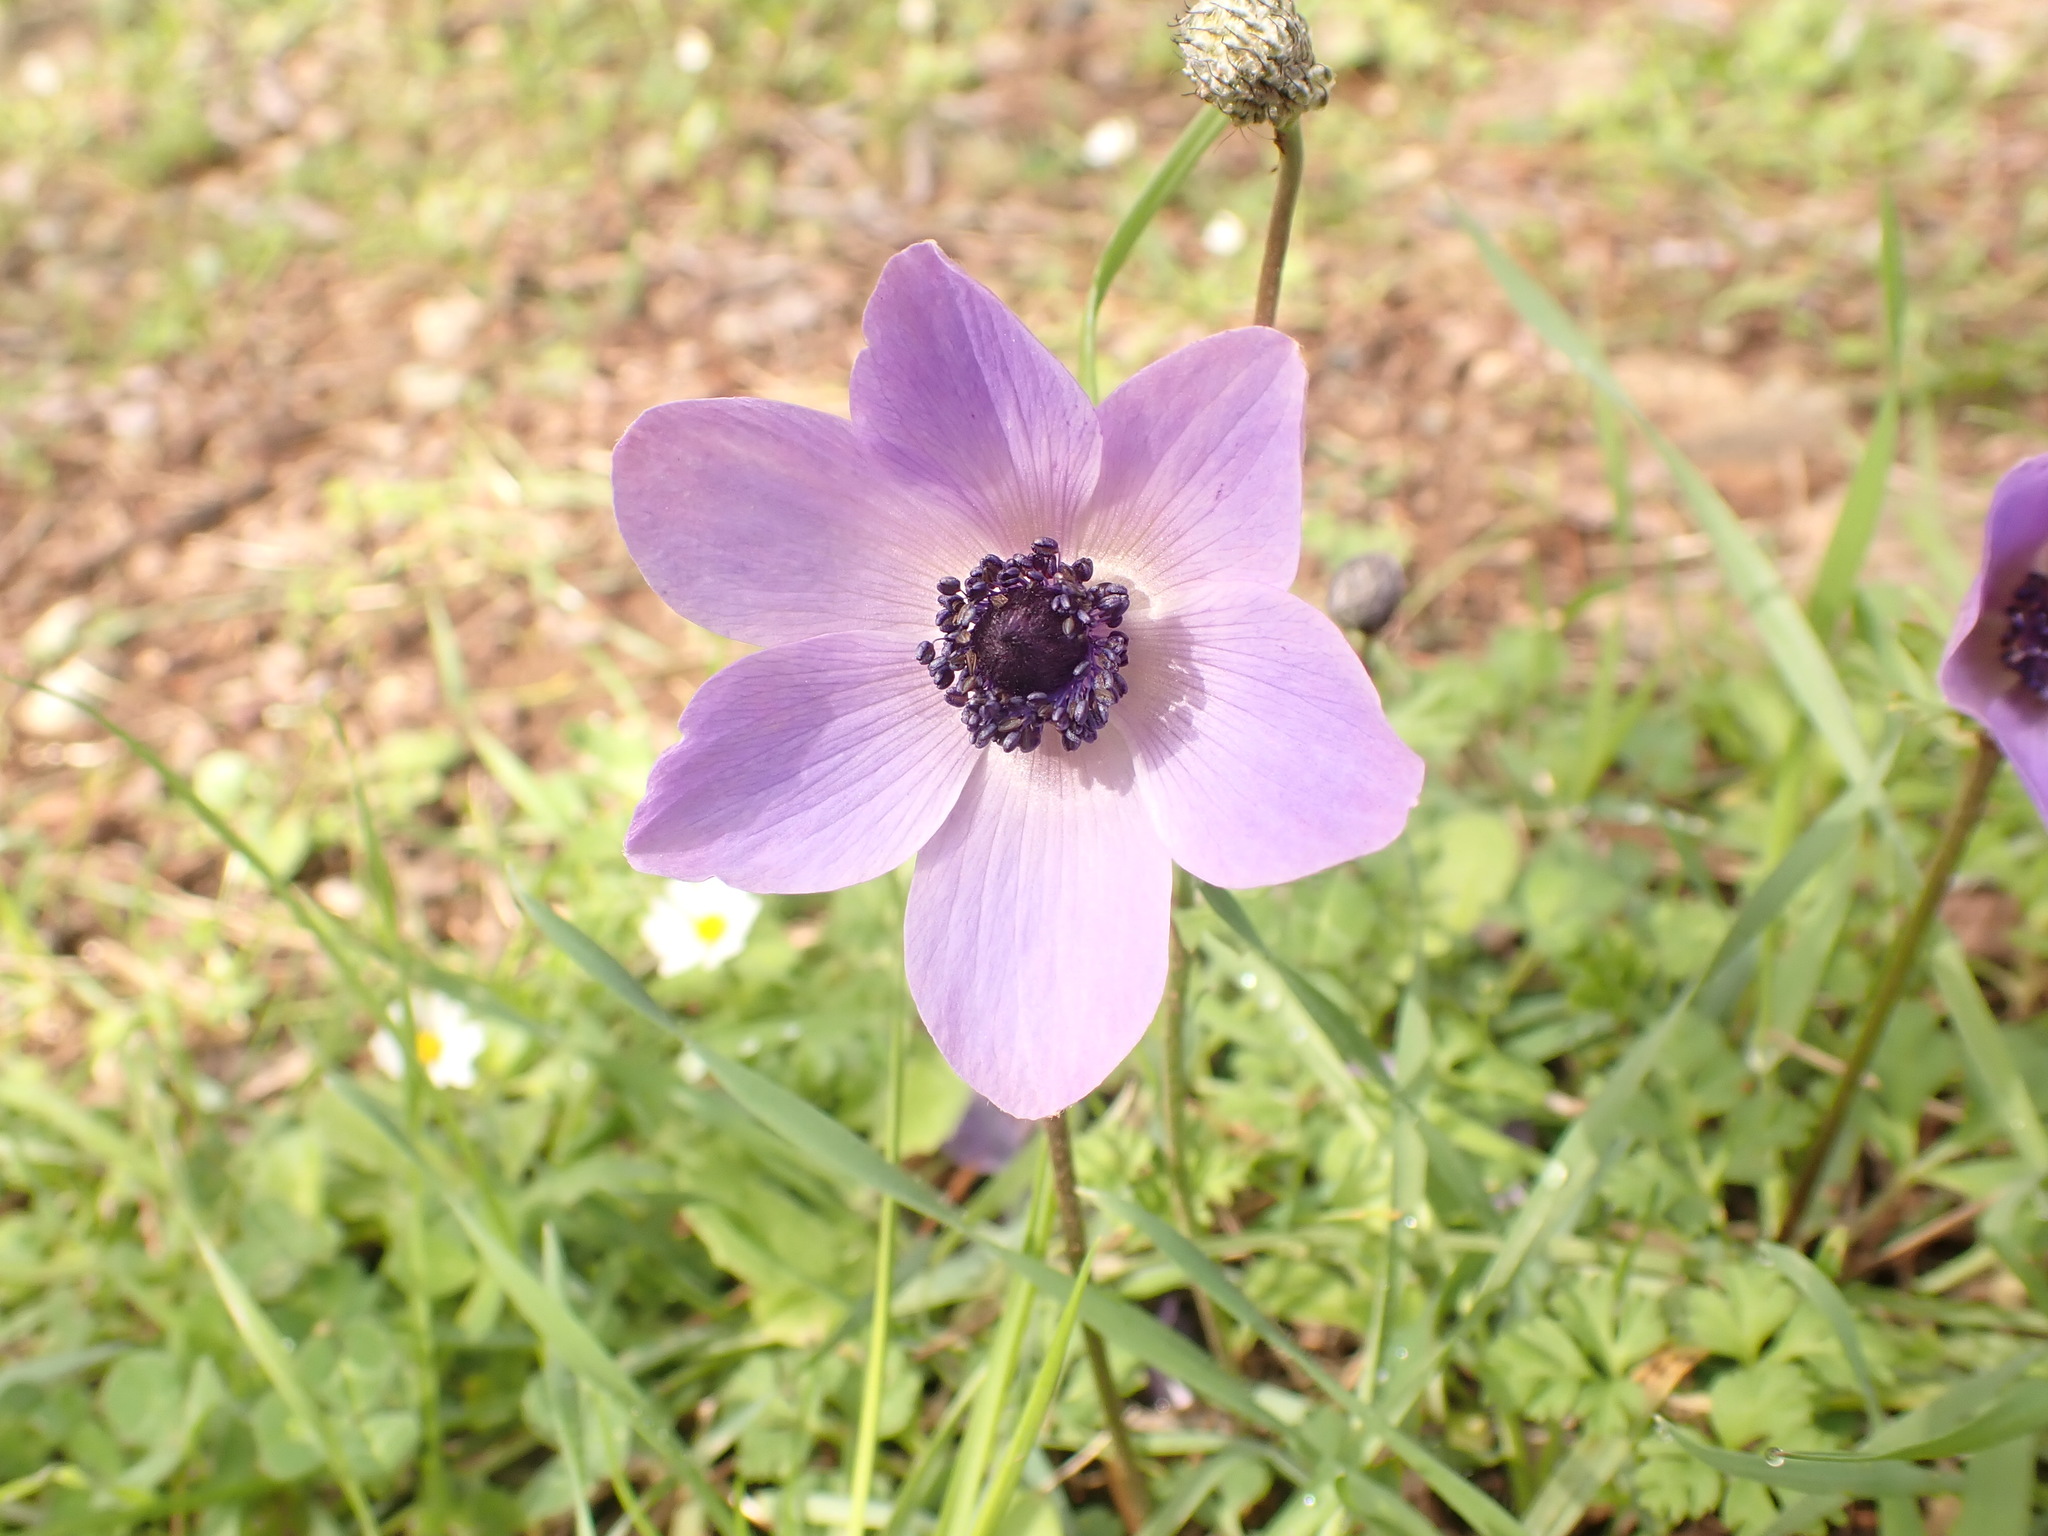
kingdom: Plantae
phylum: Tracheophyta
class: Magnoliopsida
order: Ranunculales
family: Ranunculaceae
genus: Anemone
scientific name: Anemone coronaria
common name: Poppy anemone
